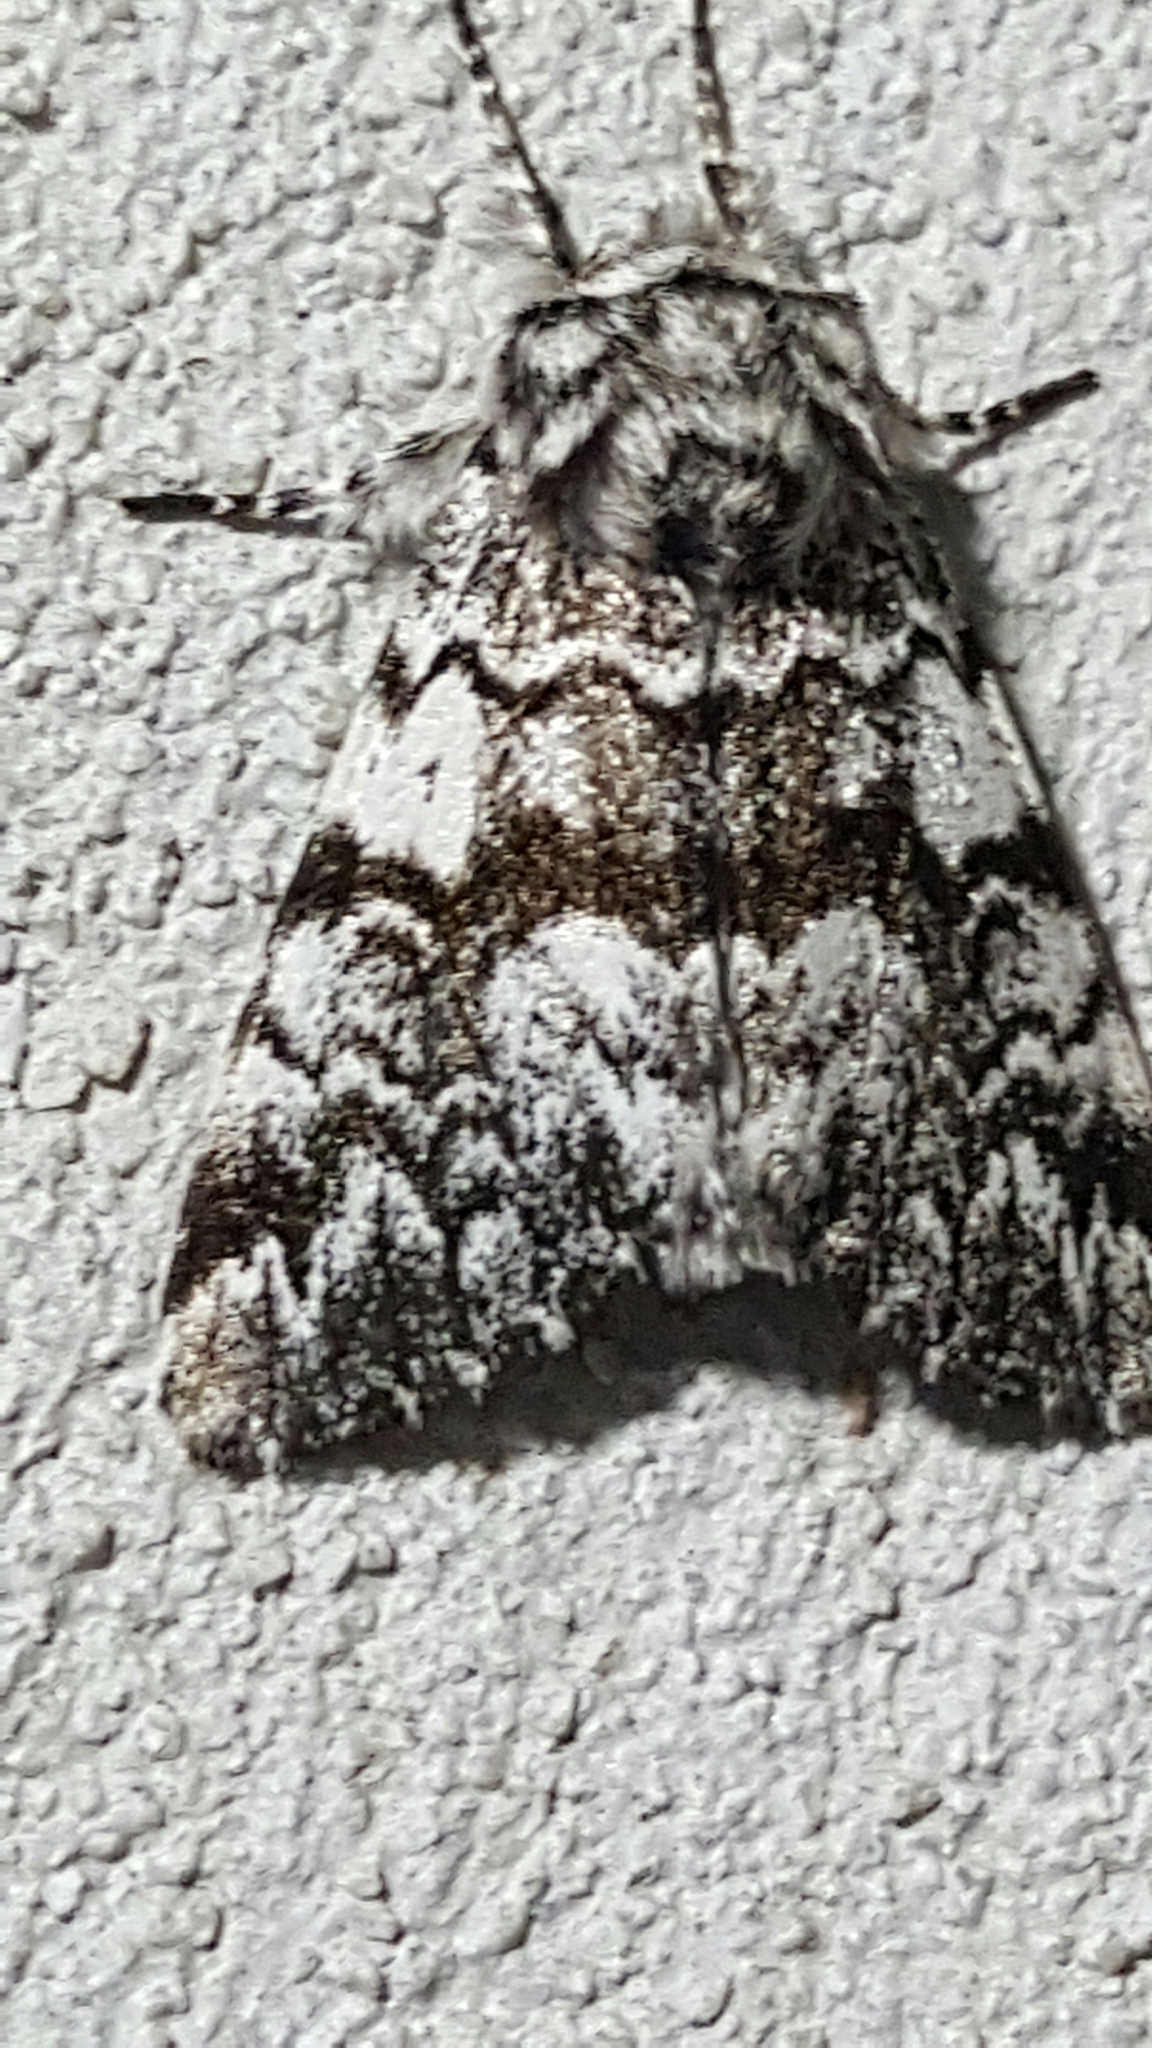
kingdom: Animalia
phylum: Arthropoda
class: Insecta
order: Lepidoptera
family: Noctuidae
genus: Panthea
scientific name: Panthea acronyctoides
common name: Black zigzag moth
